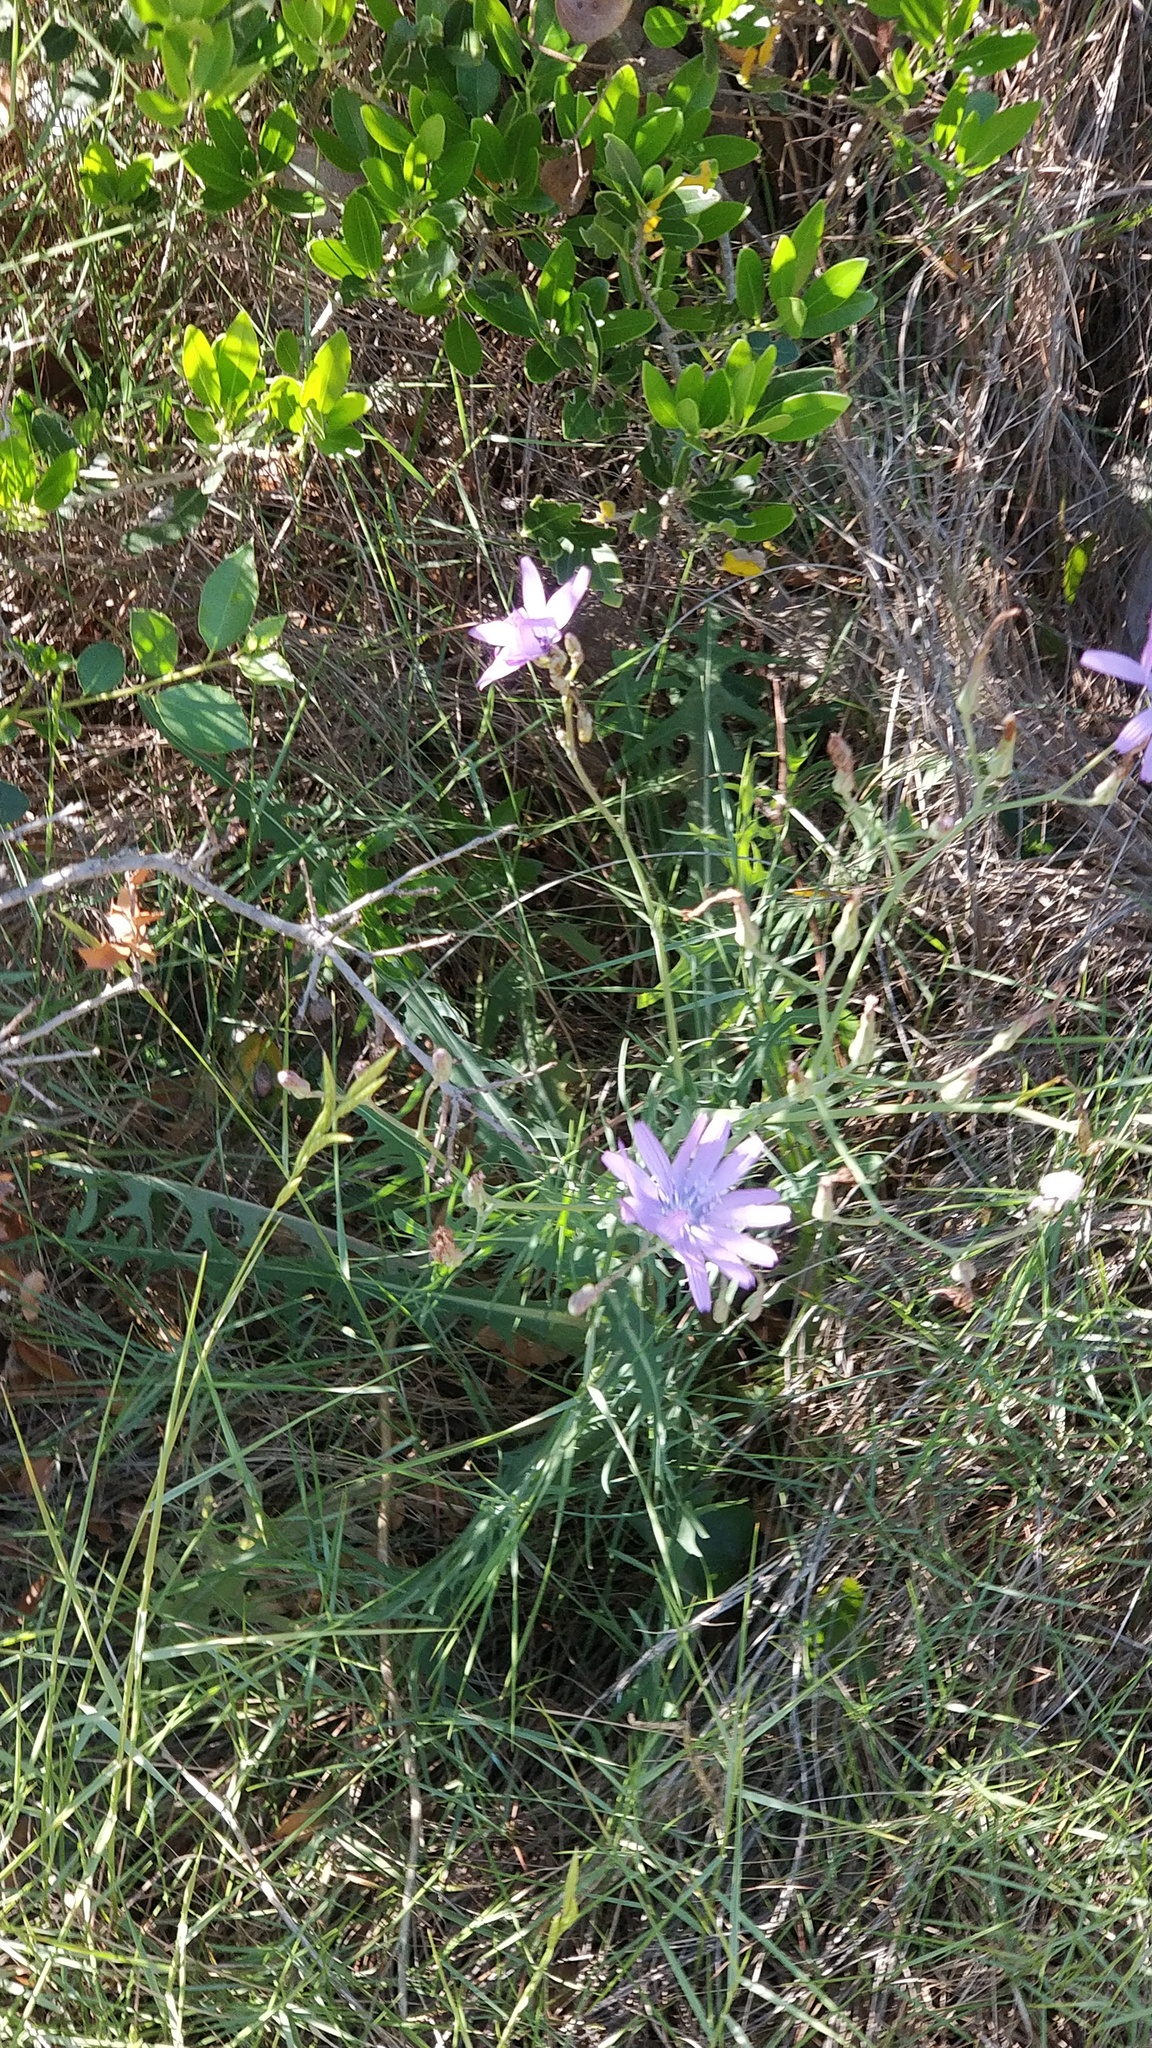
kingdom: Plantae
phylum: Tracheophyta
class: Magnoliopsida
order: Asterales
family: Asteraceae
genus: Lactuca
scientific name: Lactuca perennis
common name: Mountain lettuce
